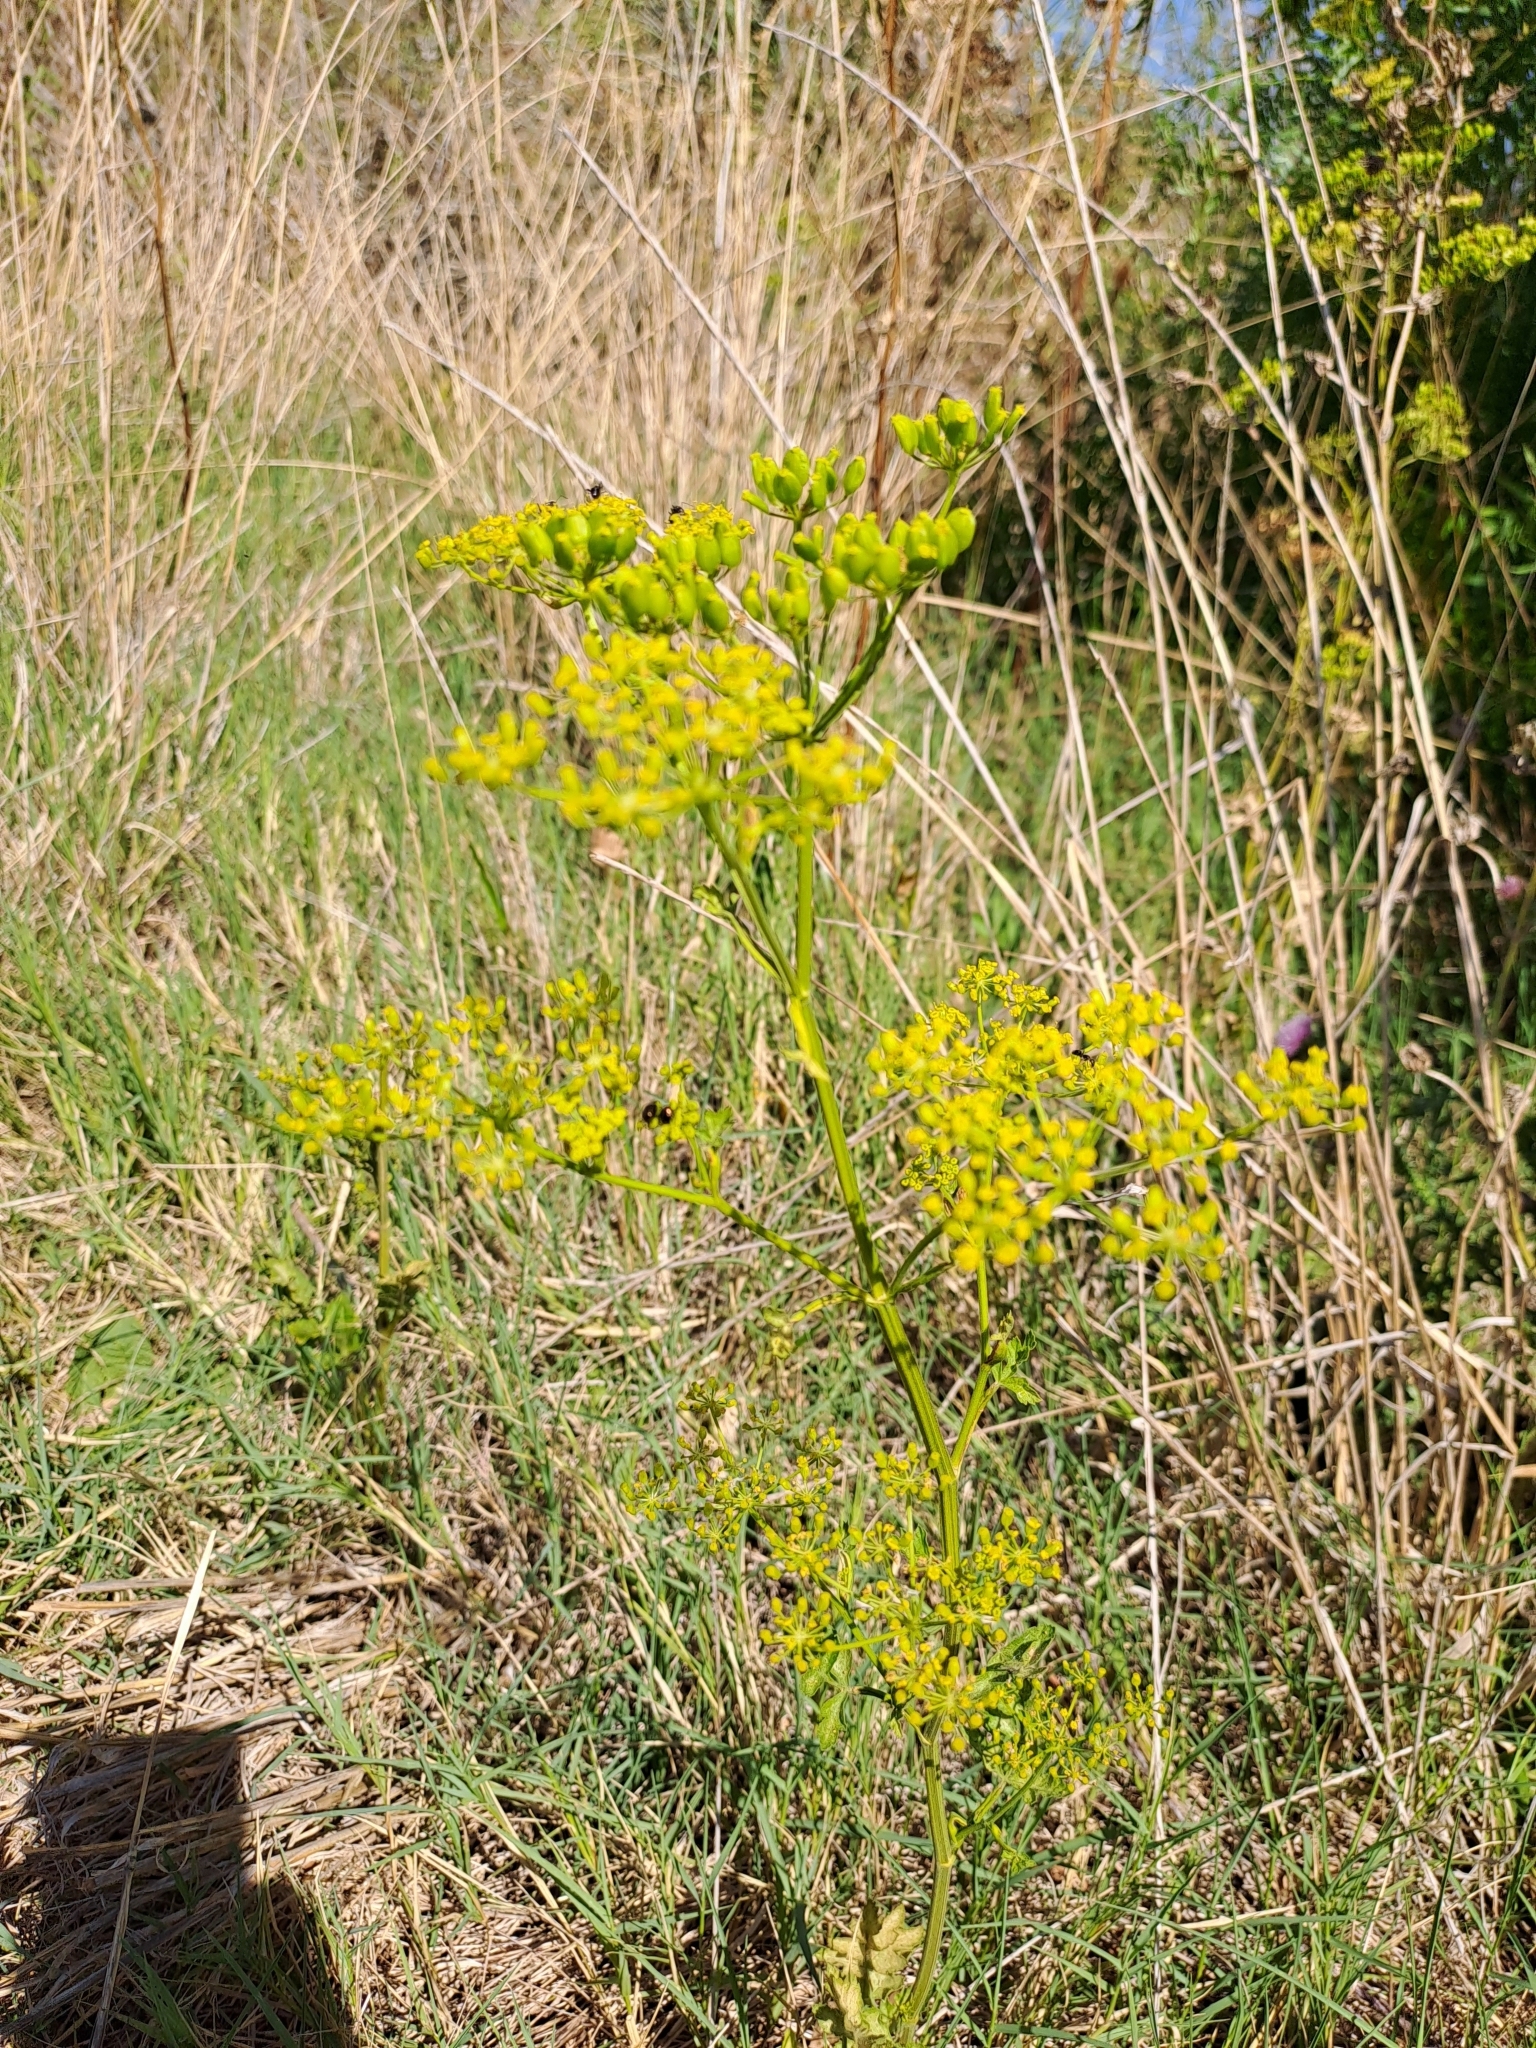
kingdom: Plantae
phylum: Tracheophyta
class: Magnoliopsida
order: Apiales
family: Apiaceae
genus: Pastinaca
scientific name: Pastinaca sativa
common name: Wild parsnip
